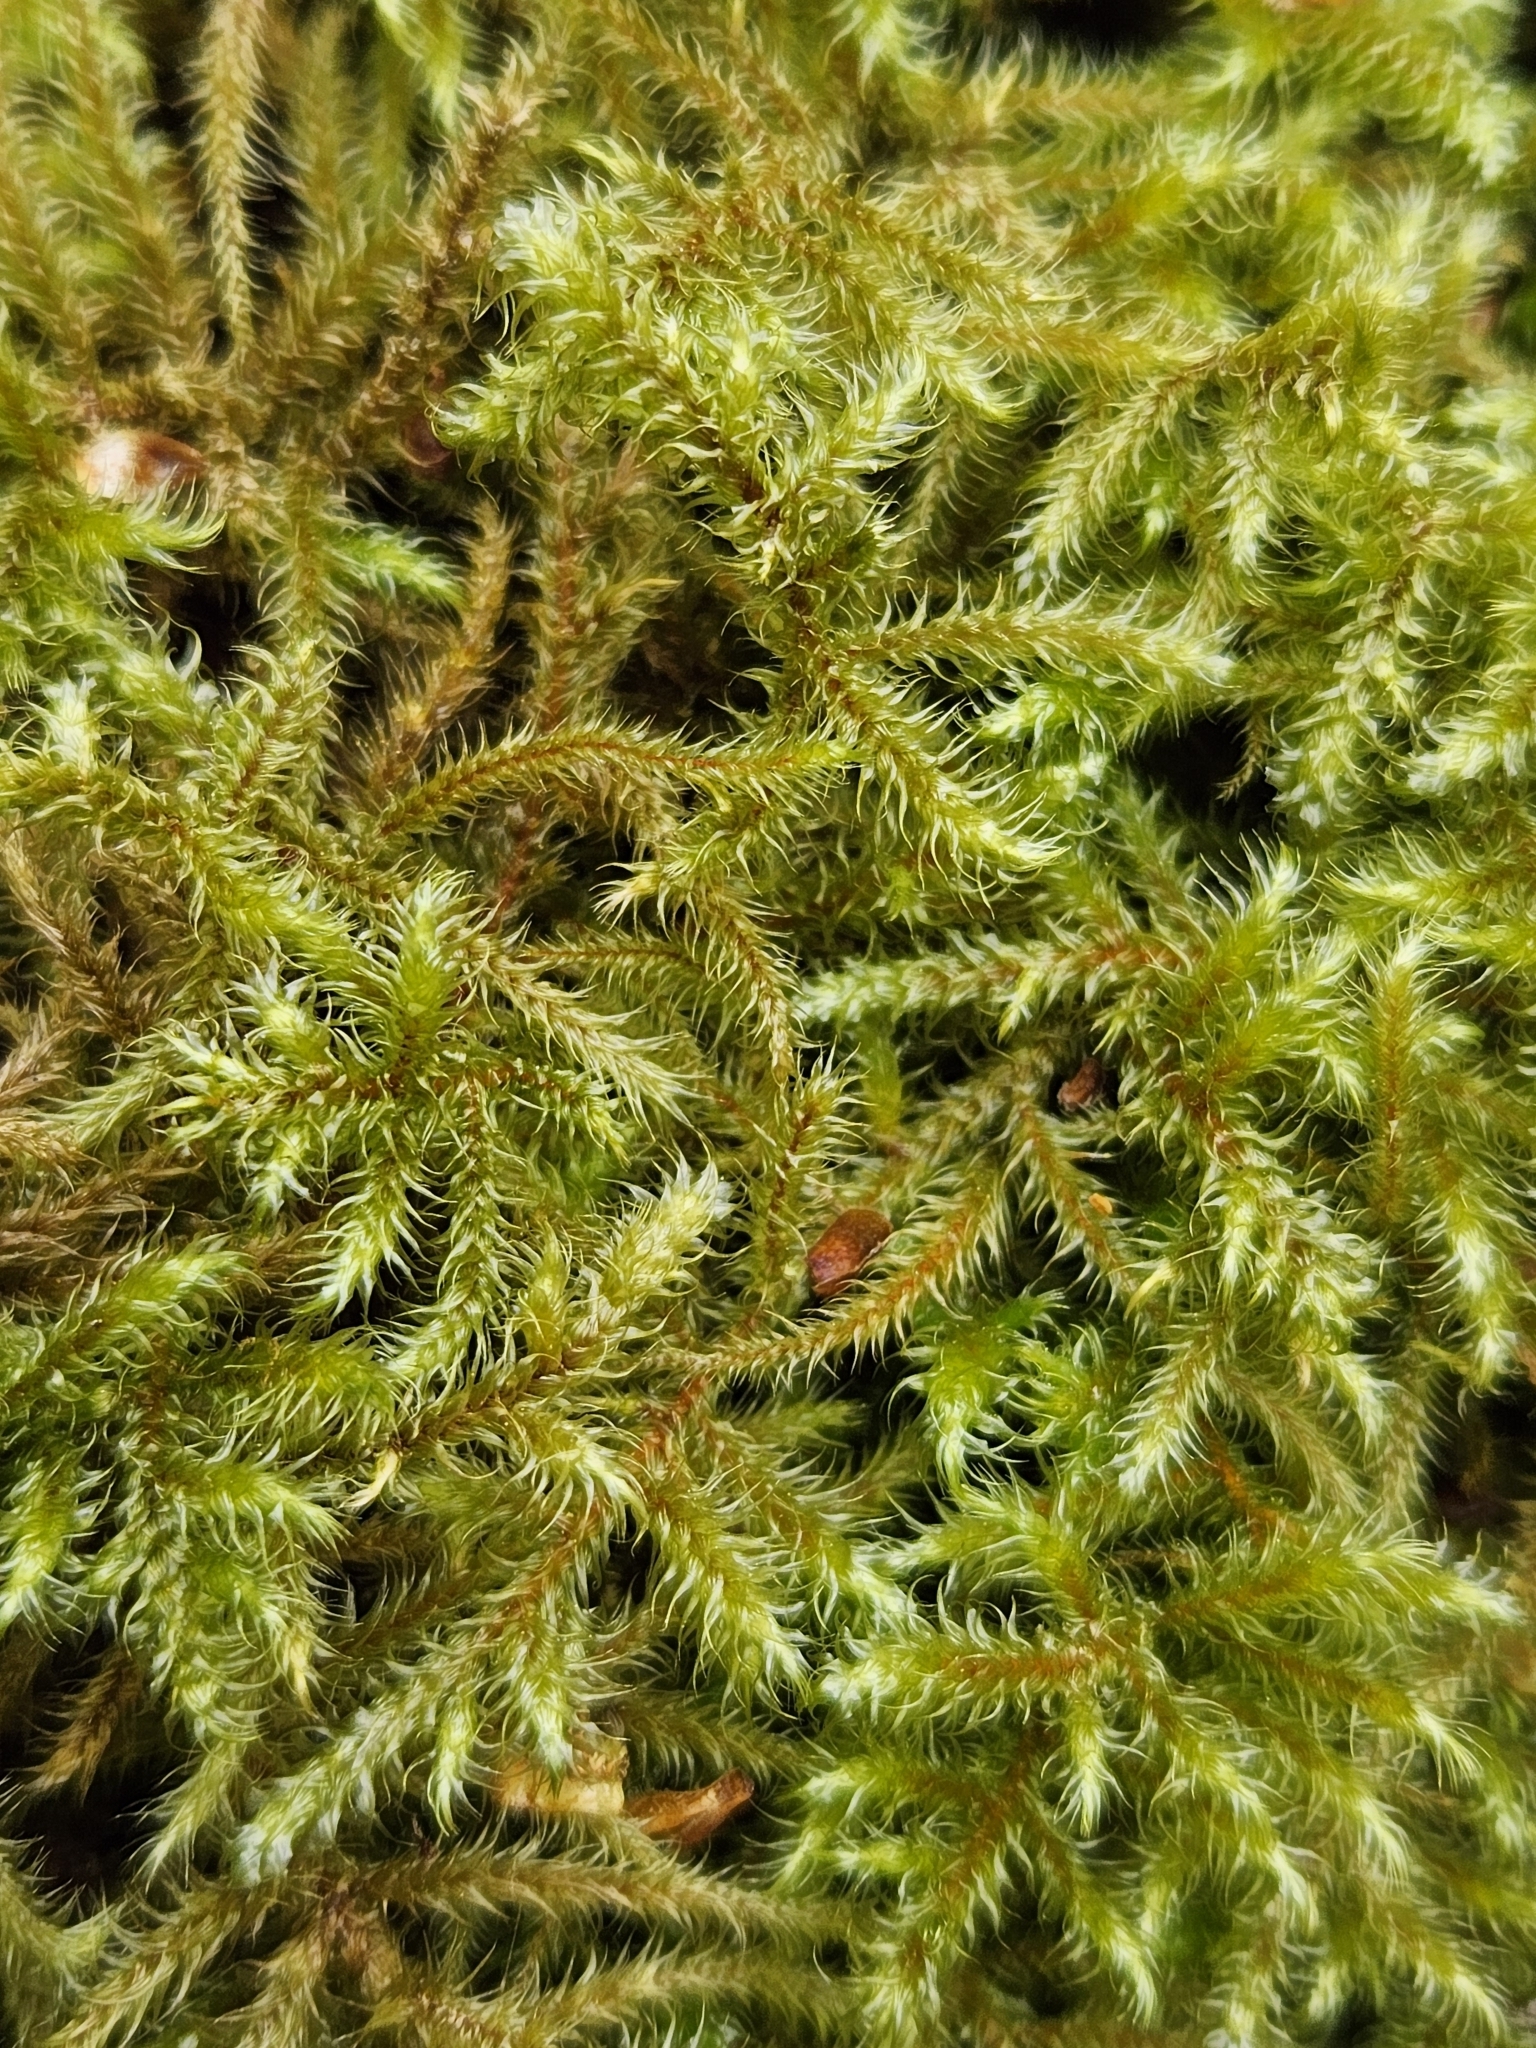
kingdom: Plantae
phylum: Bryophyta
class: Bryopsida
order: Hypnales
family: Hylocomiaceae
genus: Rhytidiadelphus
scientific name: Rhytidiadelphus loreus
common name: Lanky moss
